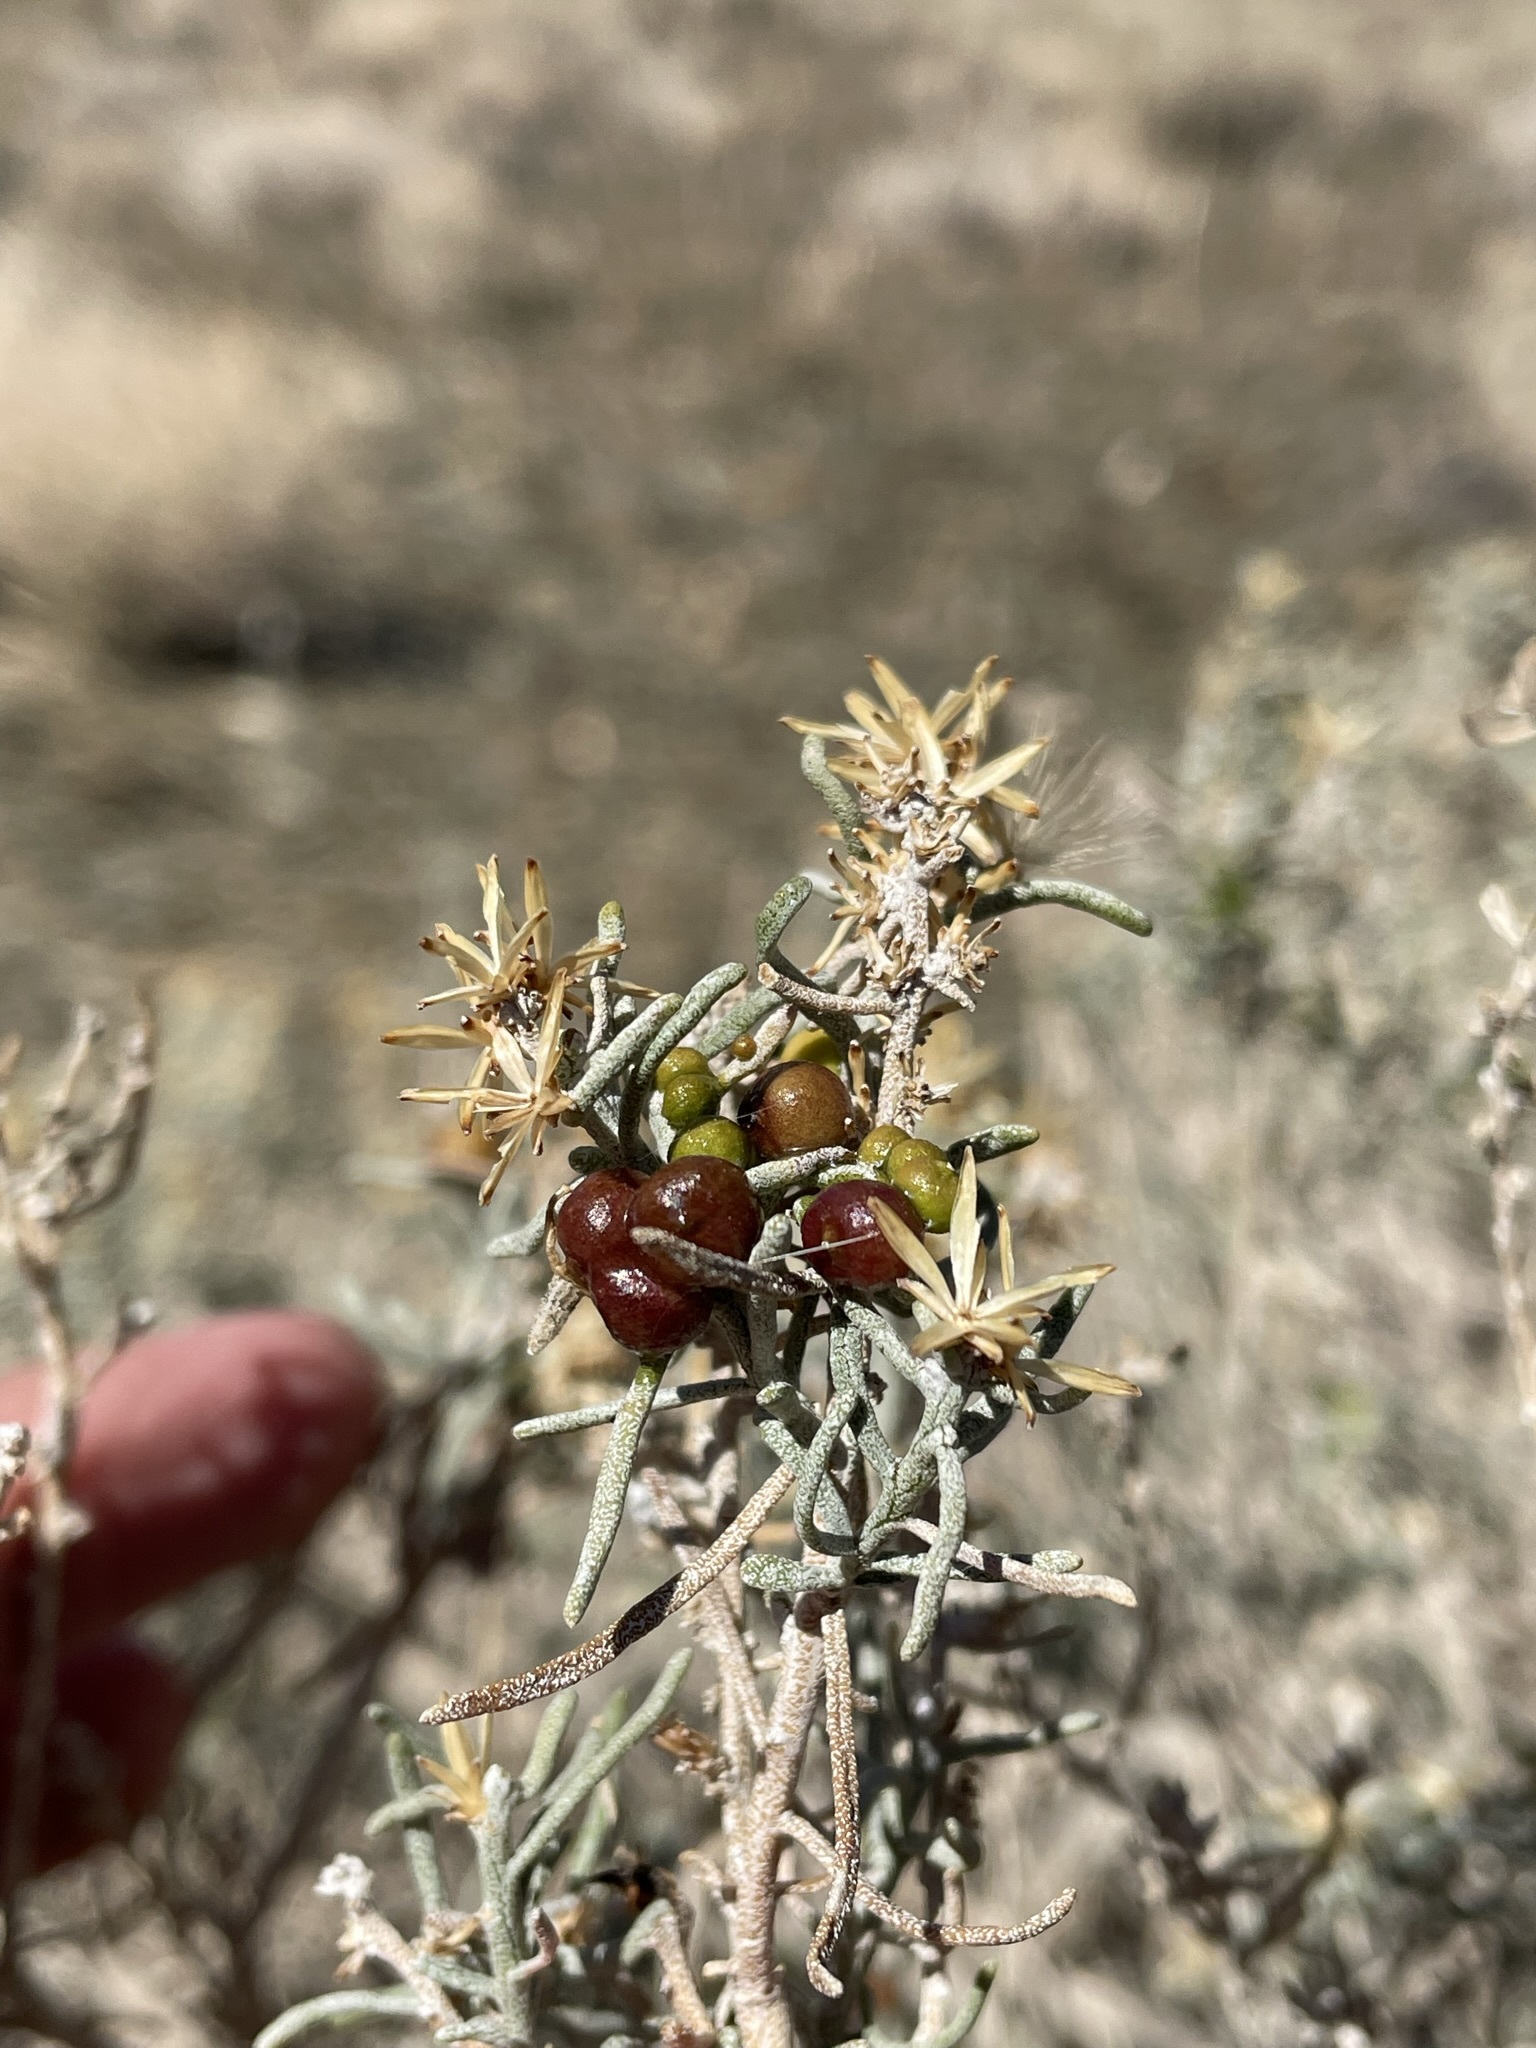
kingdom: Animalia
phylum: Arthropoda
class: Insecta
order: Diptera
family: Cecidomyiidae
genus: Rhopalomyia
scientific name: Rhopalomyia glutinosa
